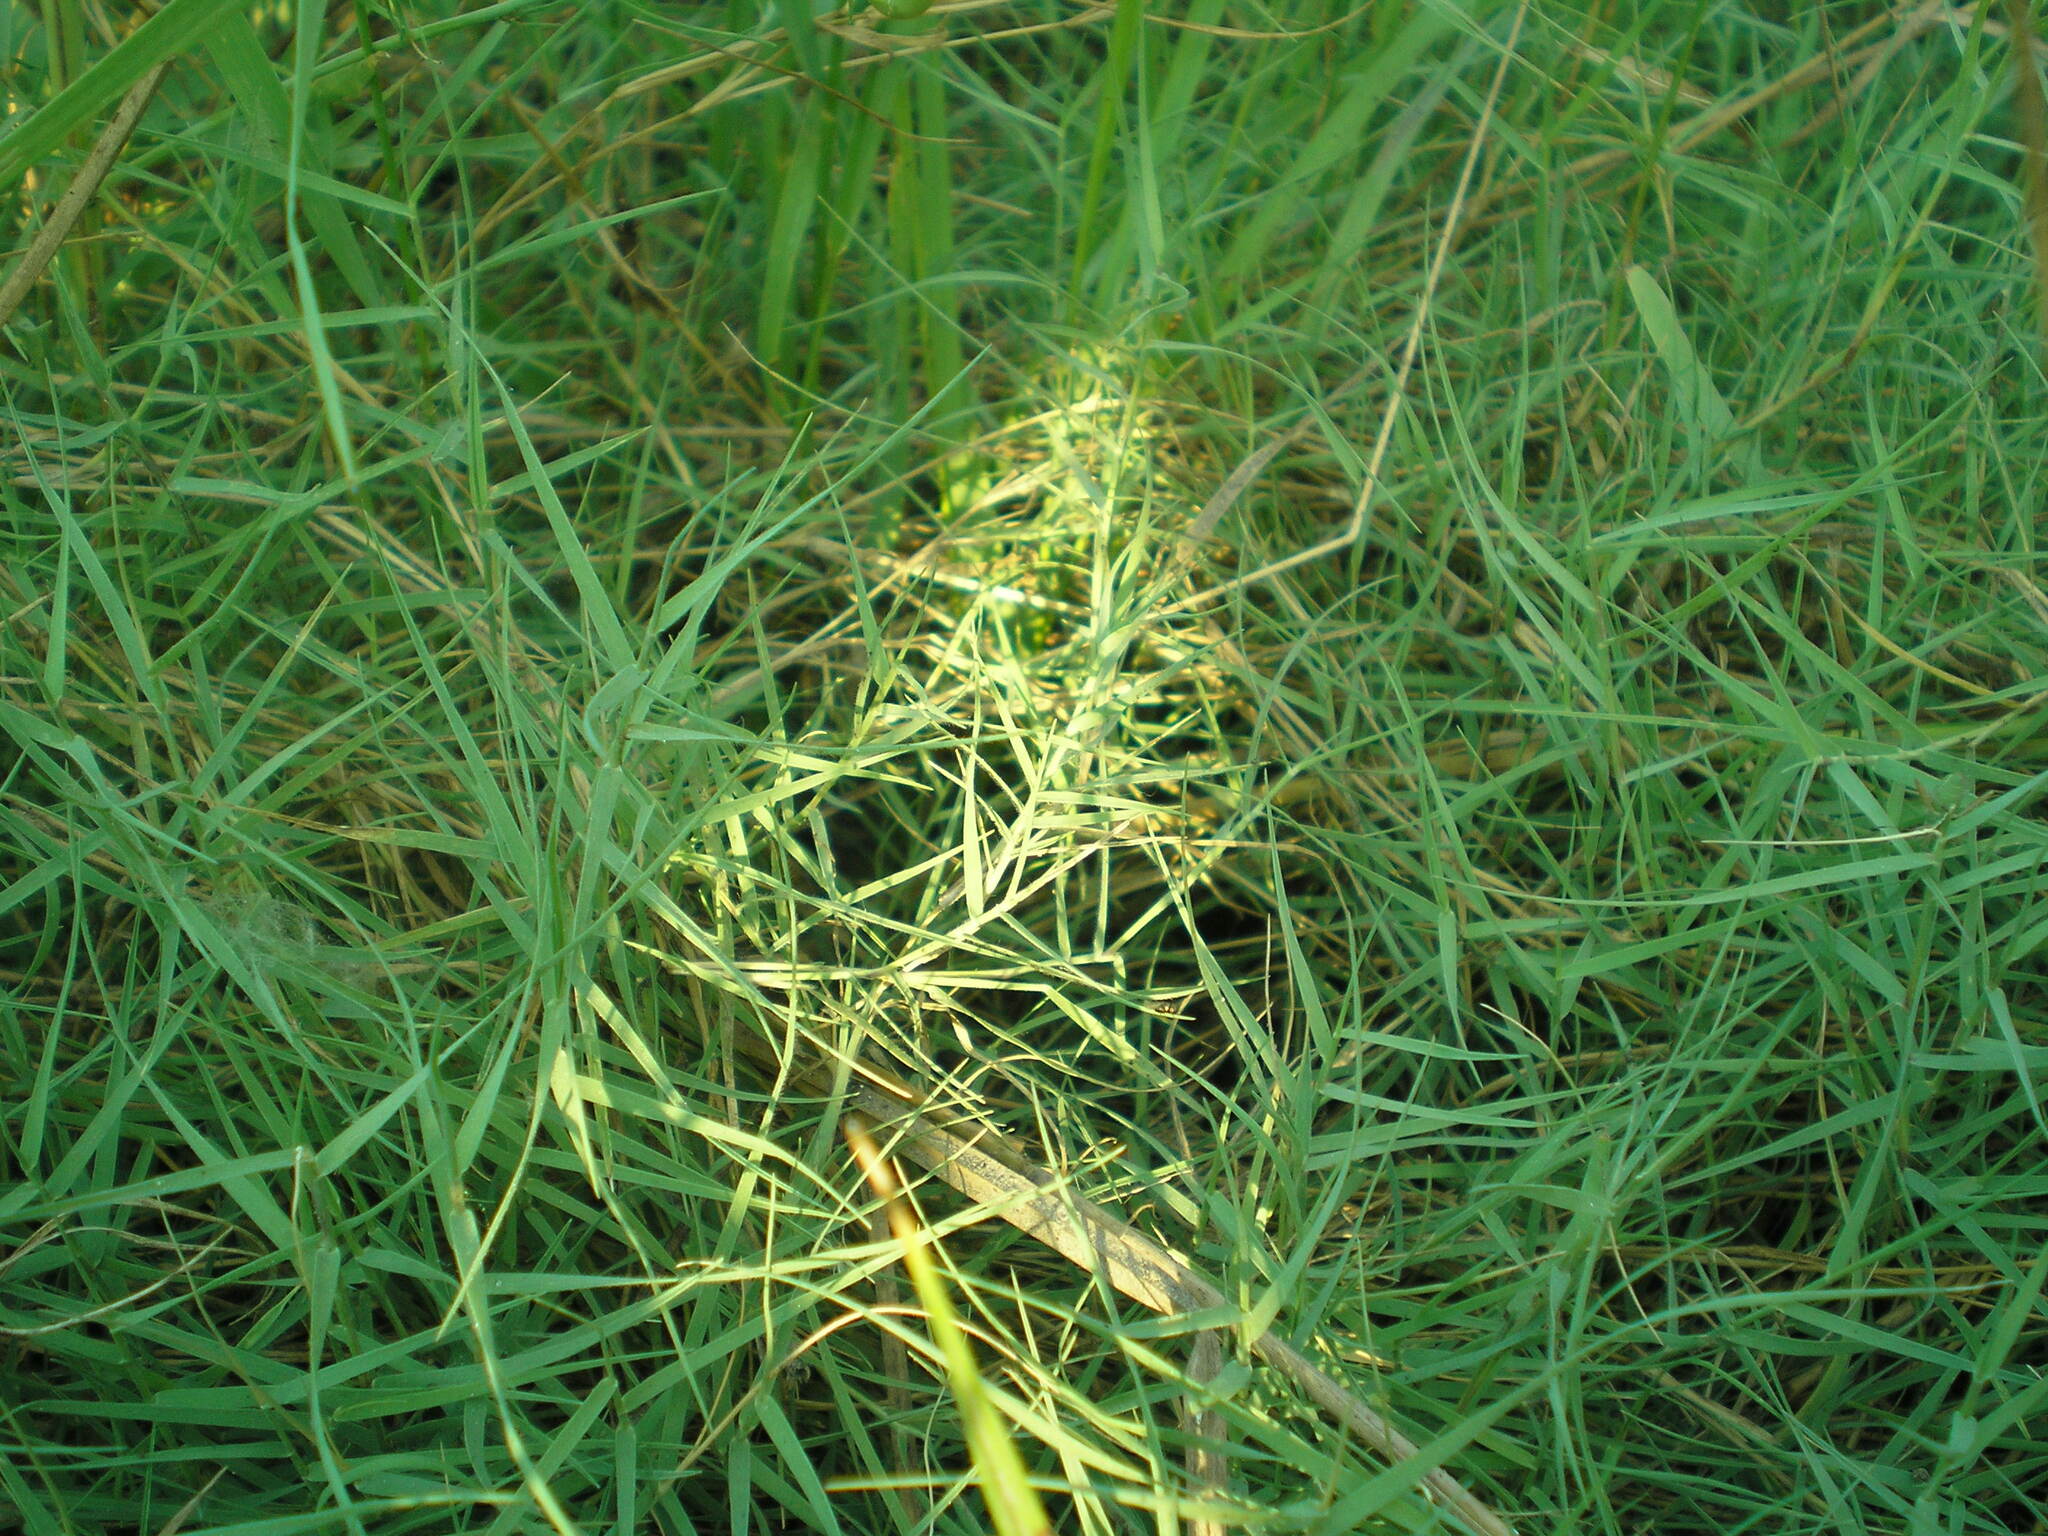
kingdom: Plantae
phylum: Tracheophyta
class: Liliopsida
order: Poales
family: Poaceae
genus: Cynodon
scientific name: Cynodon dactylon
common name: Bermuda grass
